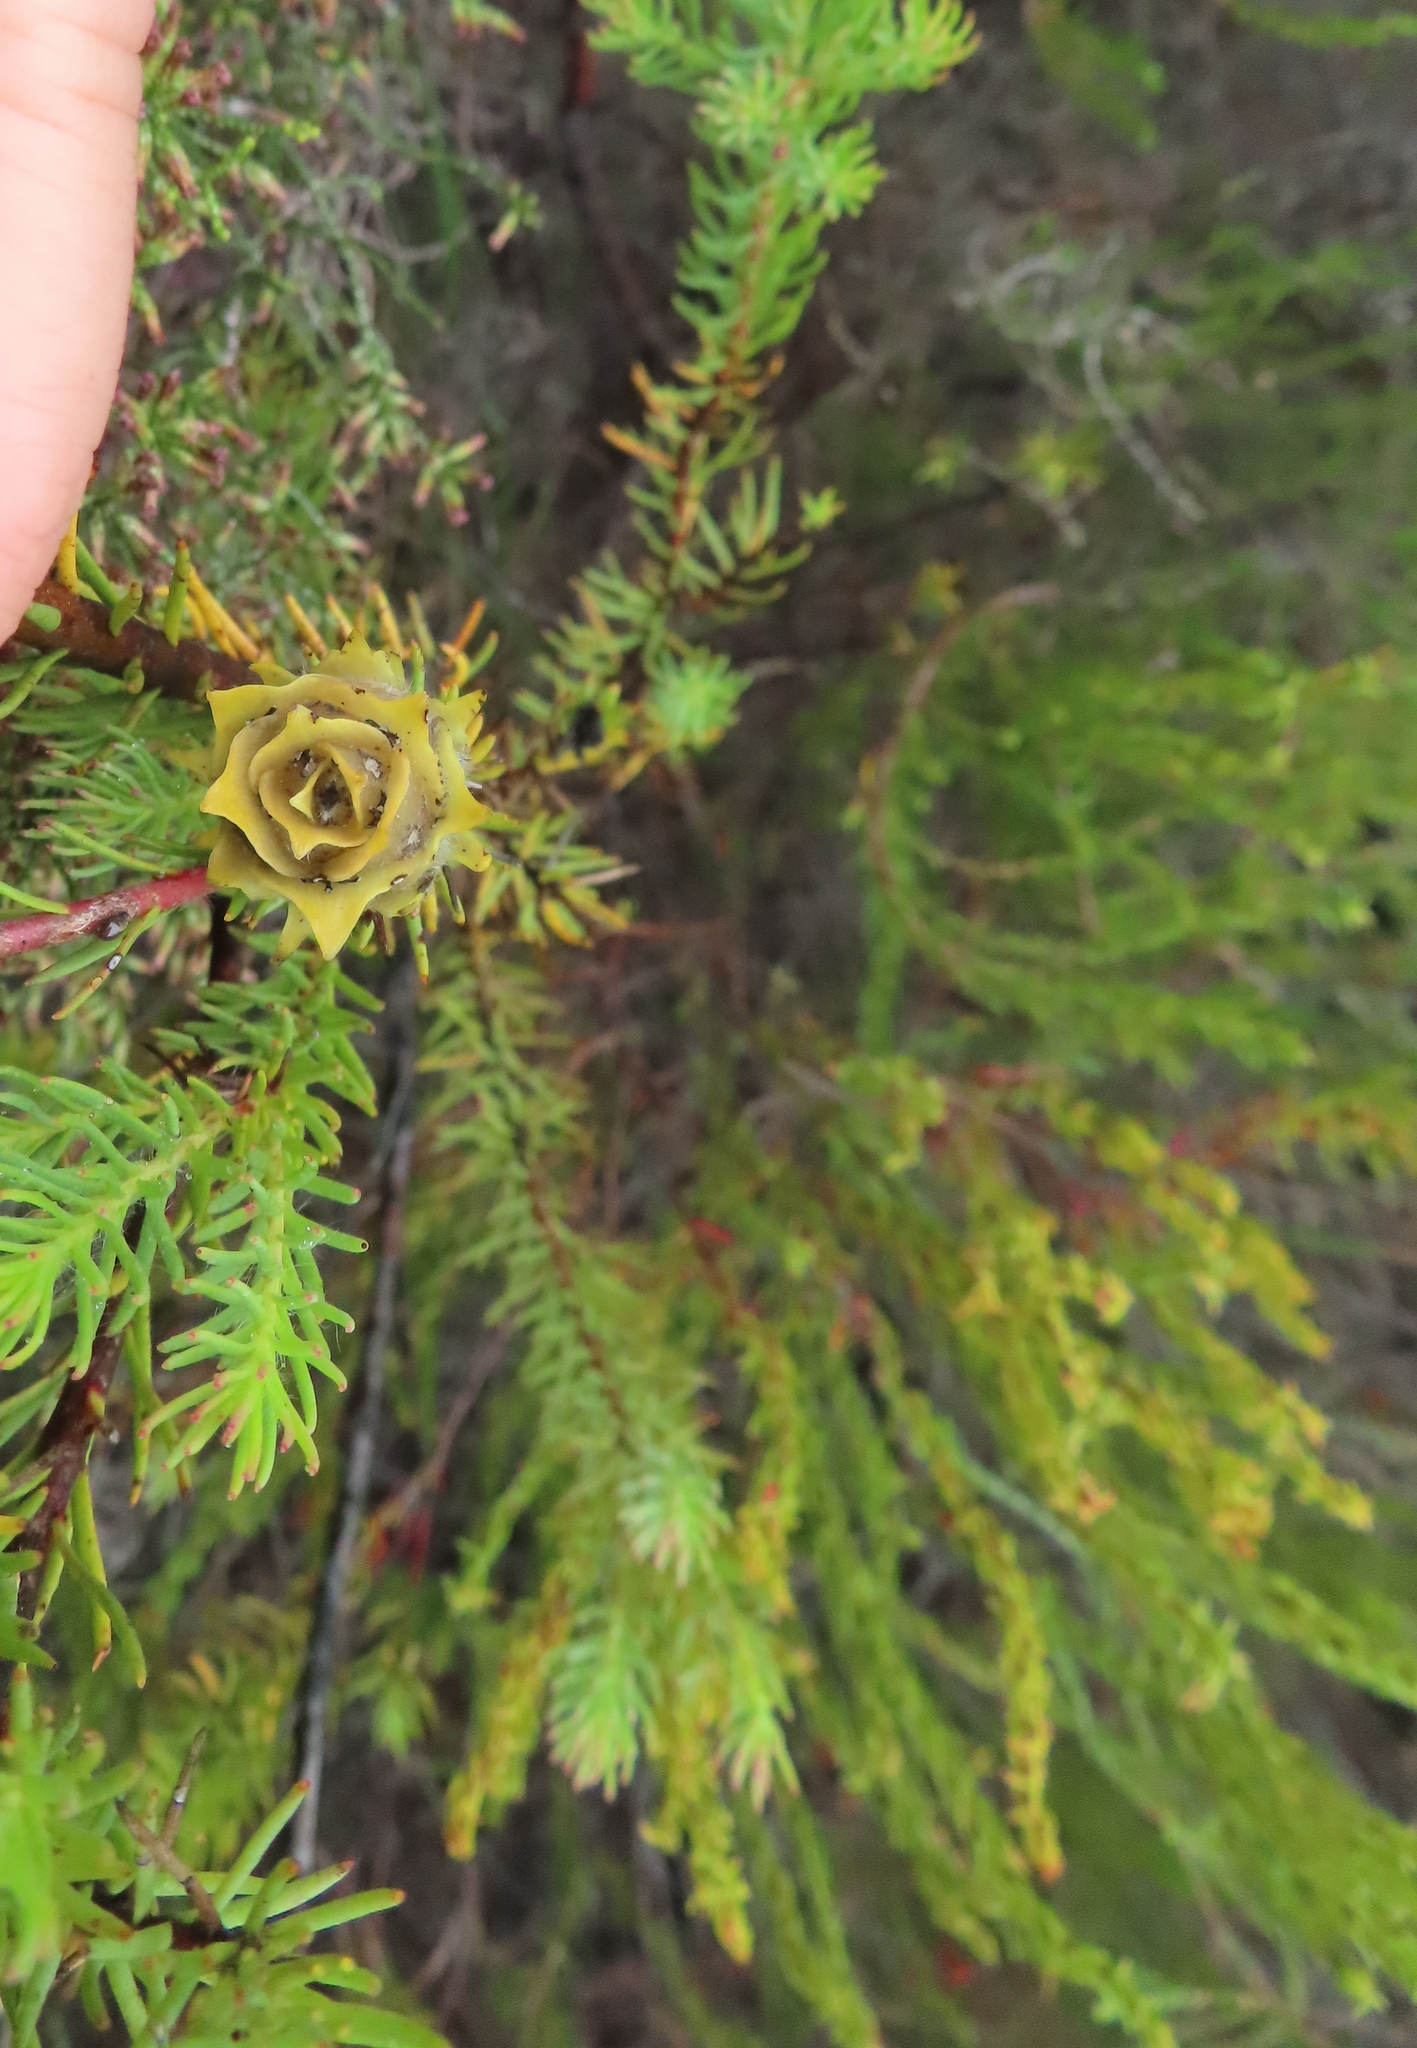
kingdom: Plantae
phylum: Tracheophyta
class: Magnoliopsida
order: Proteales
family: Proteaceae
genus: Leucadendron
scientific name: Leucadendron laxum
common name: Bredasdorp conebush
